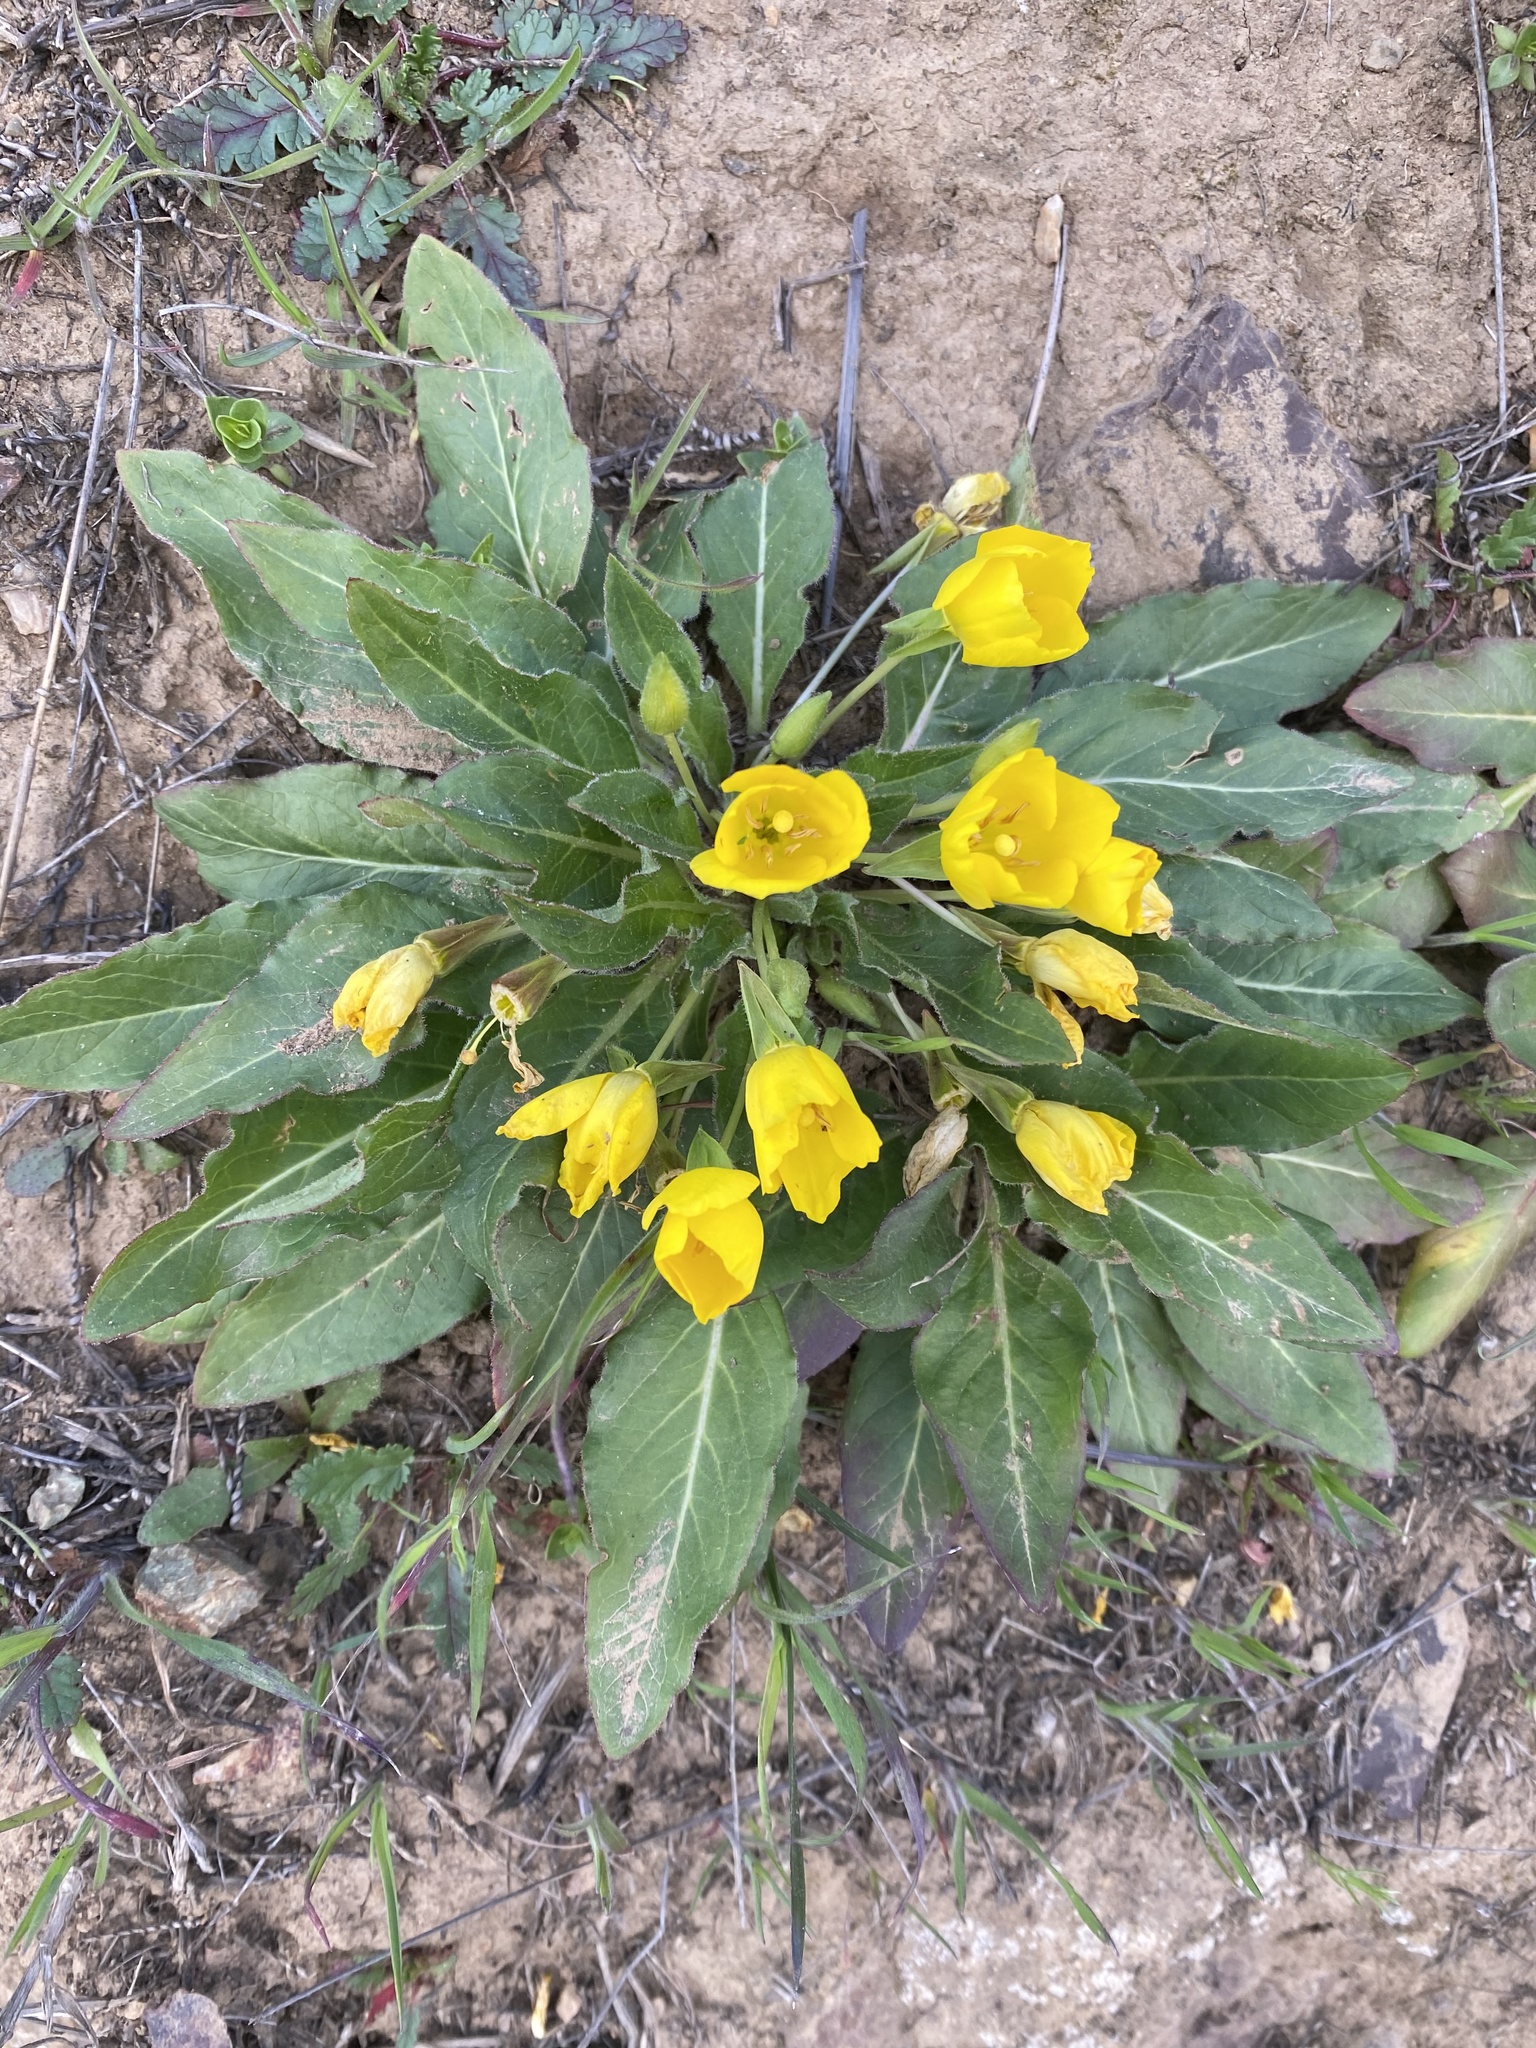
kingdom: Plantae
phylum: Tracheophyta
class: Magnoliopsida
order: Myrtales
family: Onagraceae
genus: Taraxia
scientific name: Taraxia ovata
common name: Goldeneggs
